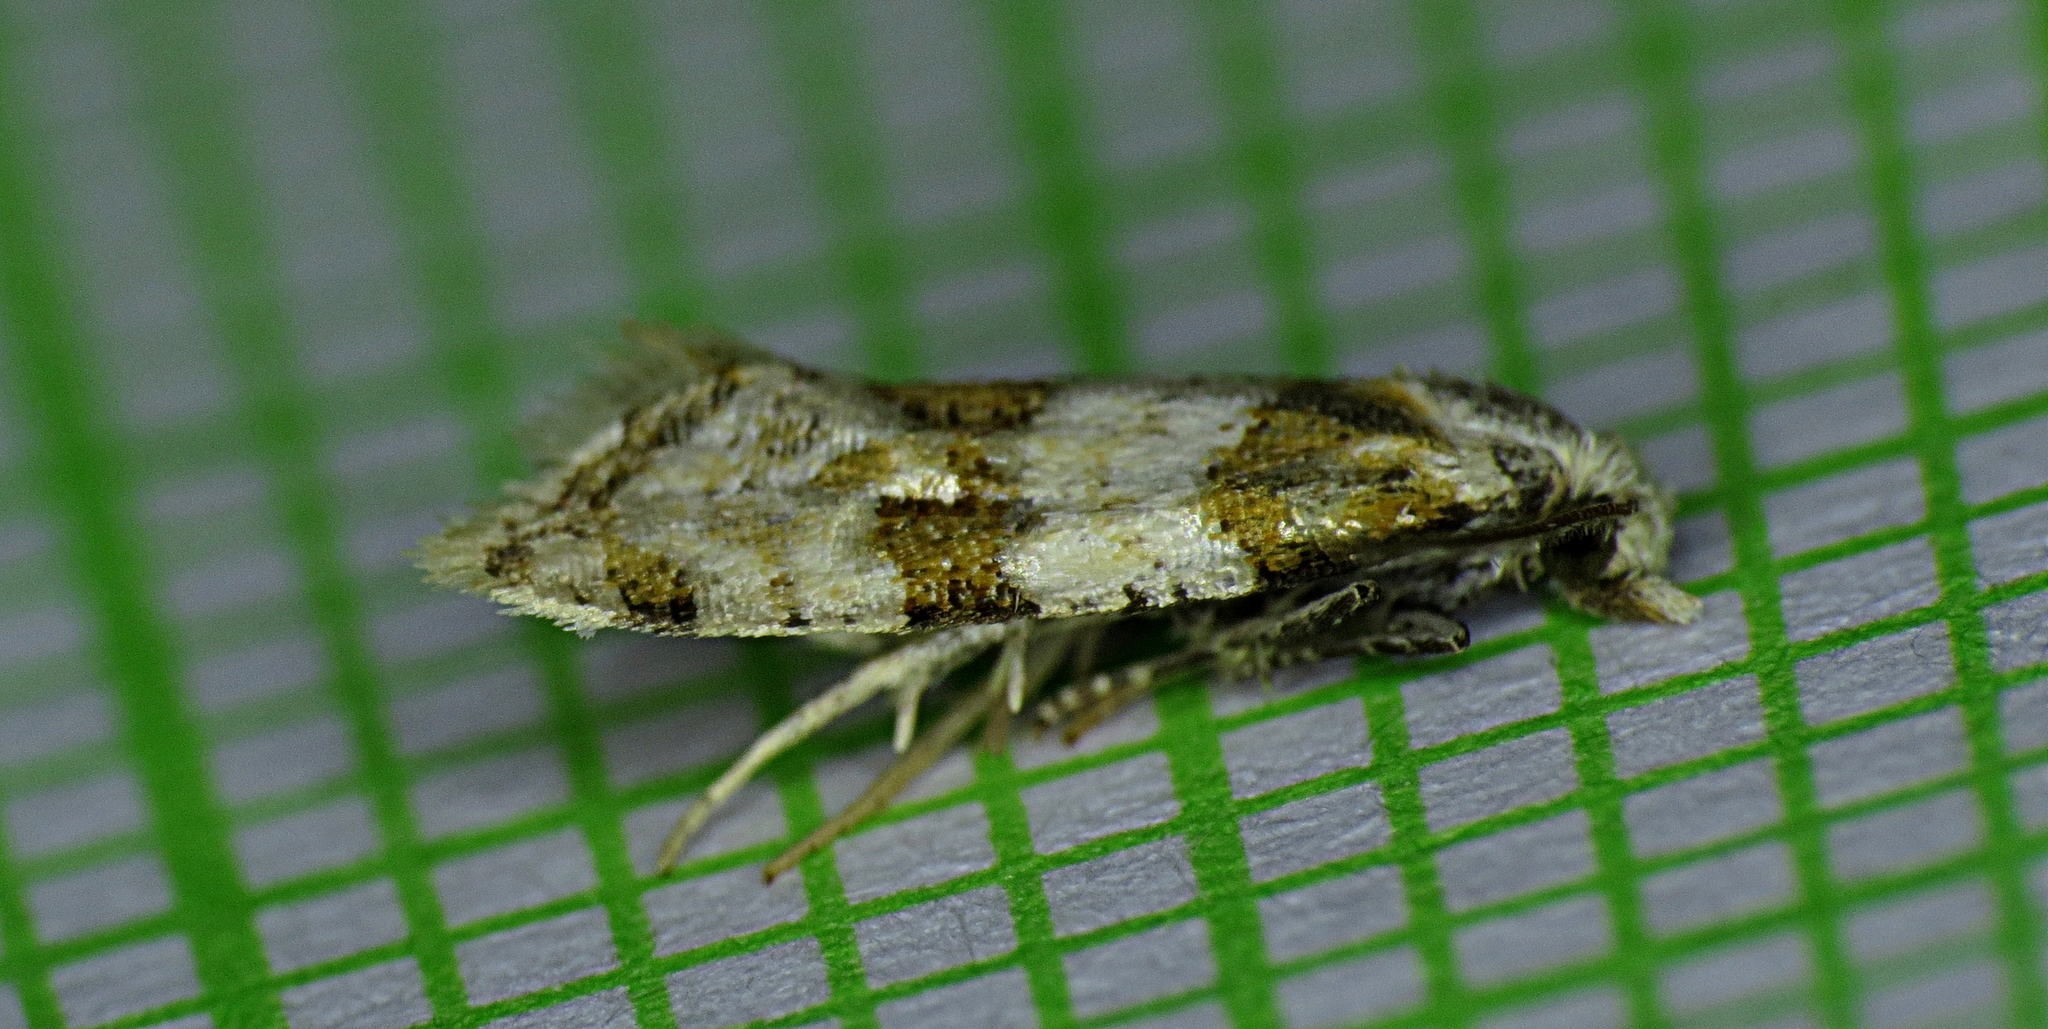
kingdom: Animalia
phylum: Arthropoda
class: Insecta
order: Lepidoptera
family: Tortricidae
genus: Aethes
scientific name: Aethes argentilimitana
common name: Silver-bordered aethes
